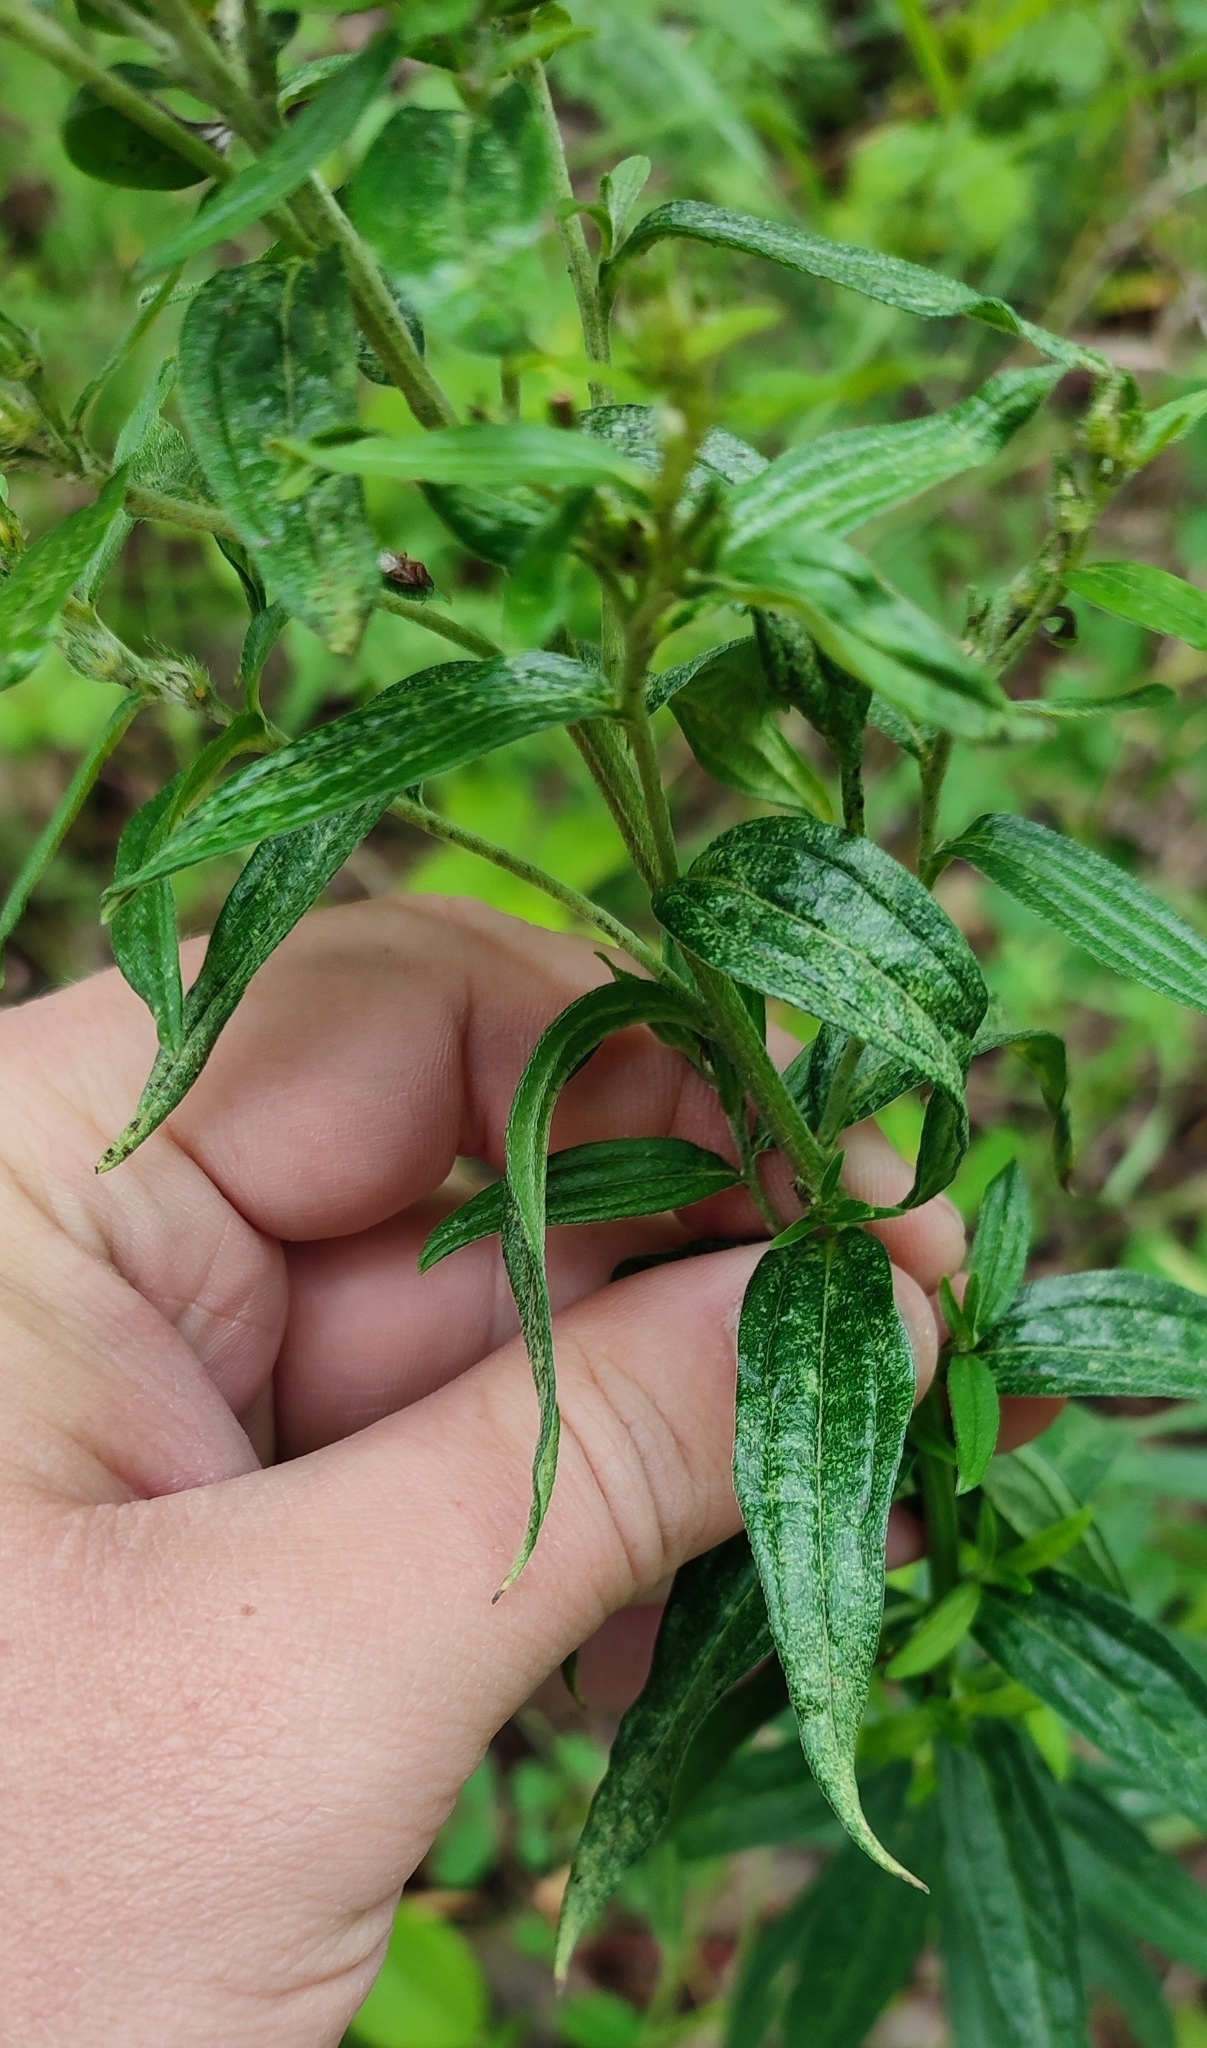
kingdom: Plantae
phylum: Tracheophyta
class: Magnoliopsida
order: Boraginales
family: Boraginaceae
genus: Lithospermum
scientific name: Lithospermum officinale
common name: Common gromwell
